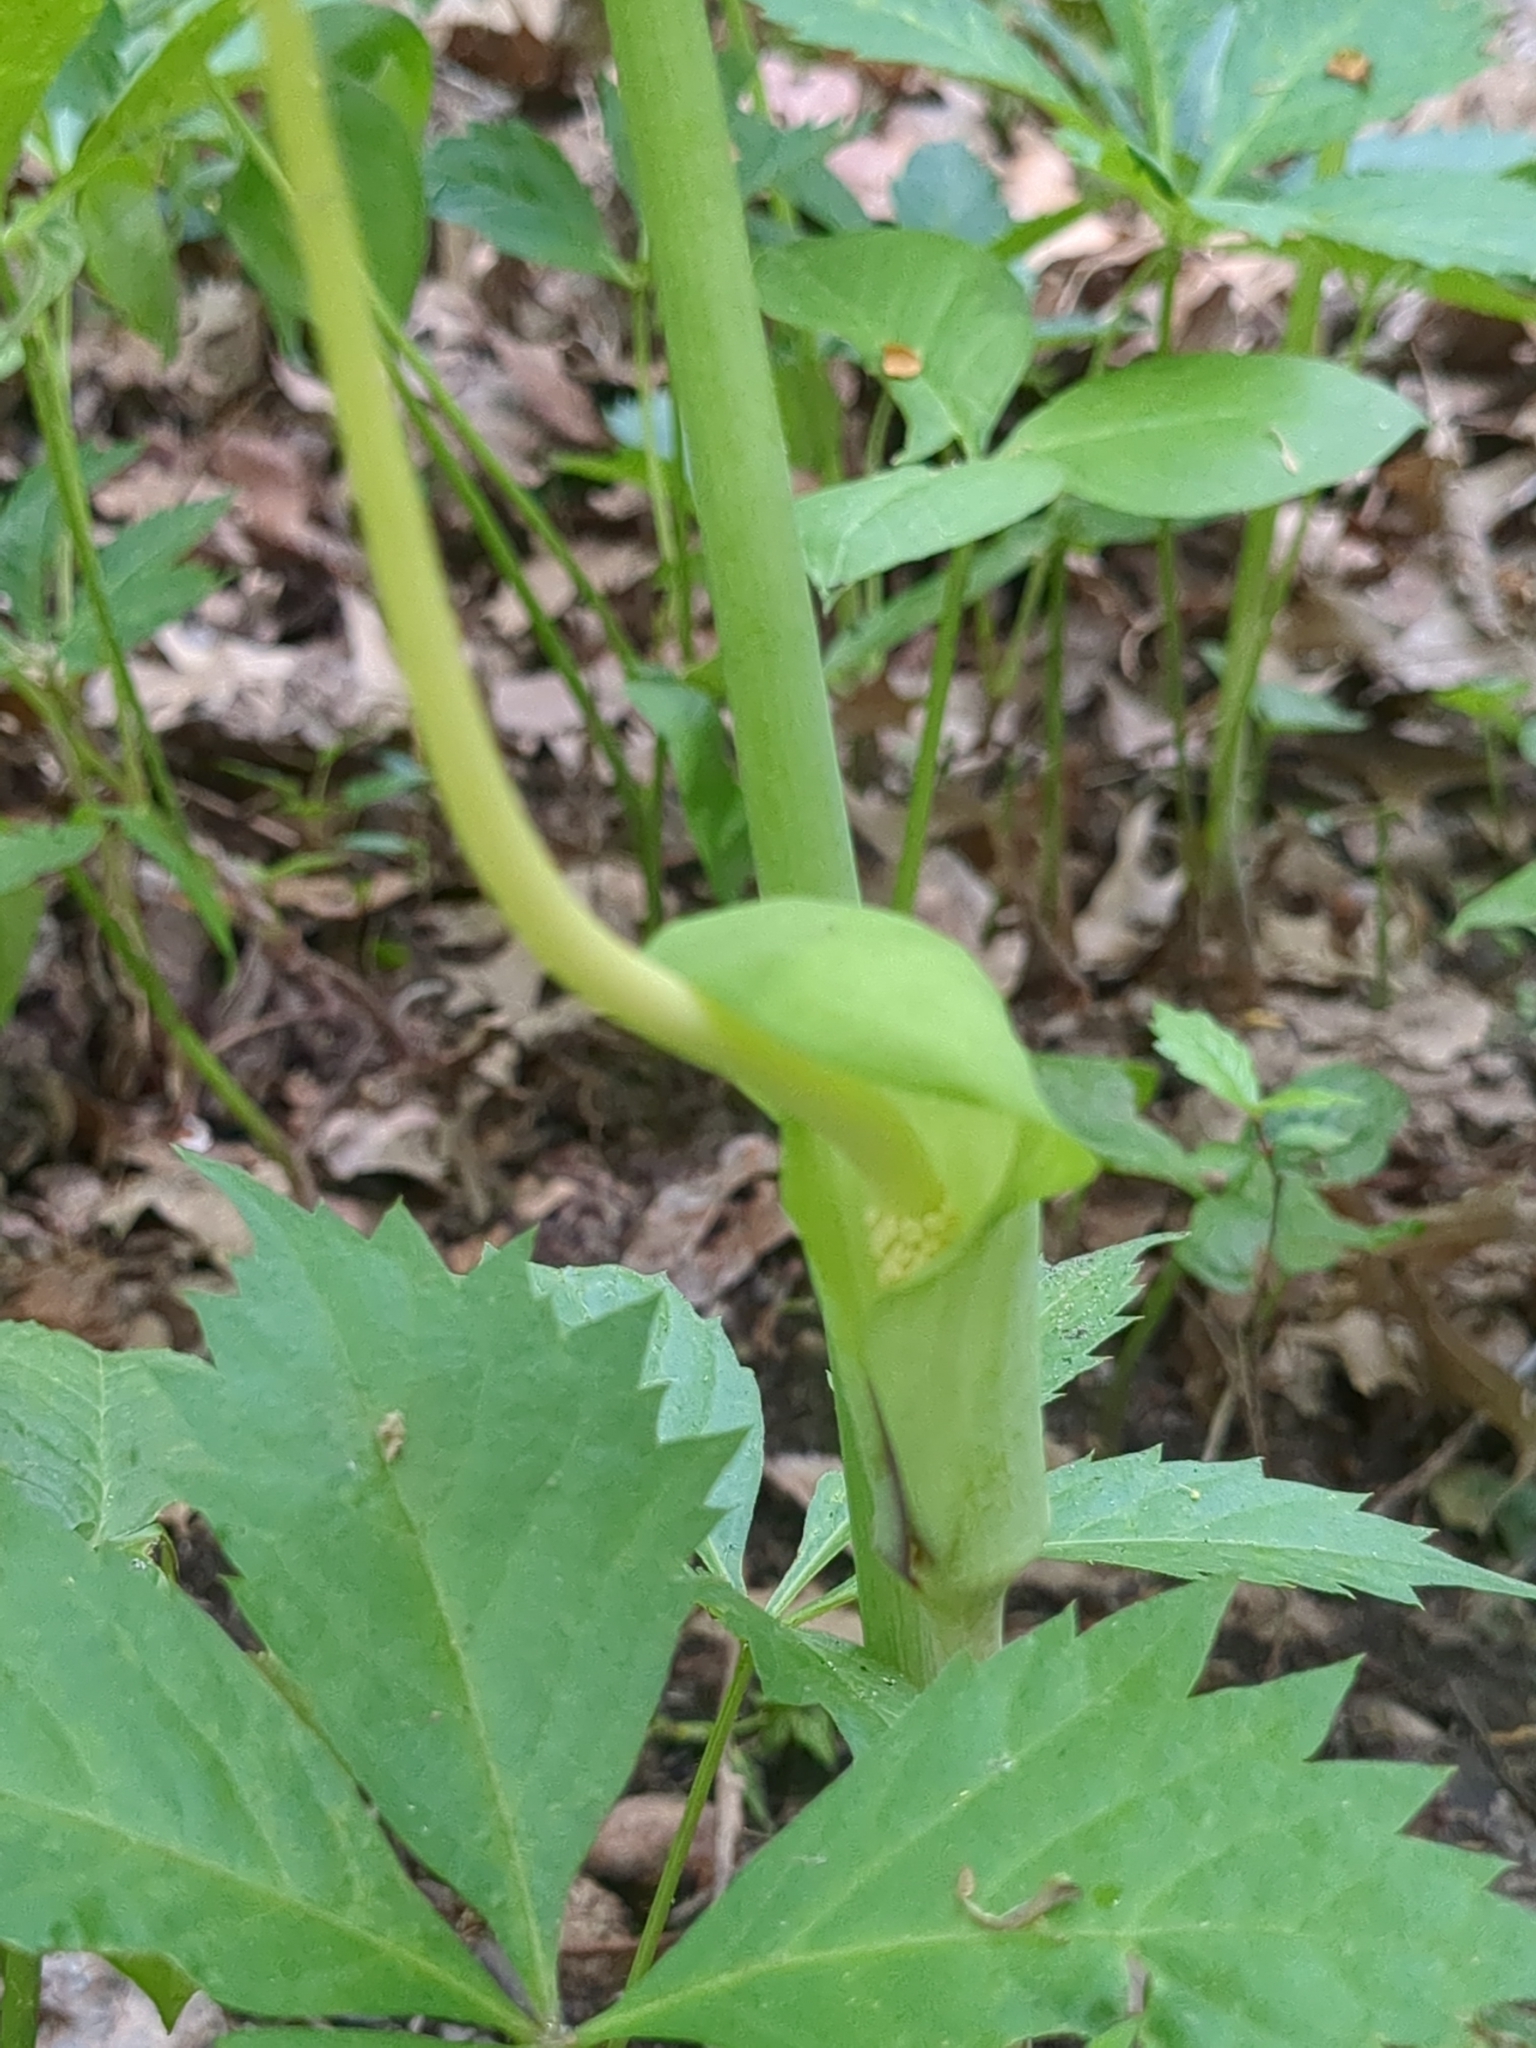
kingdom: Plantae
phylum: Tracheophyta
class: Liliopsida
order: Alismatales
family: Araceae
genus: Arisaema
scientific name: Arisaema dracontium
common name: Dragon-arum
